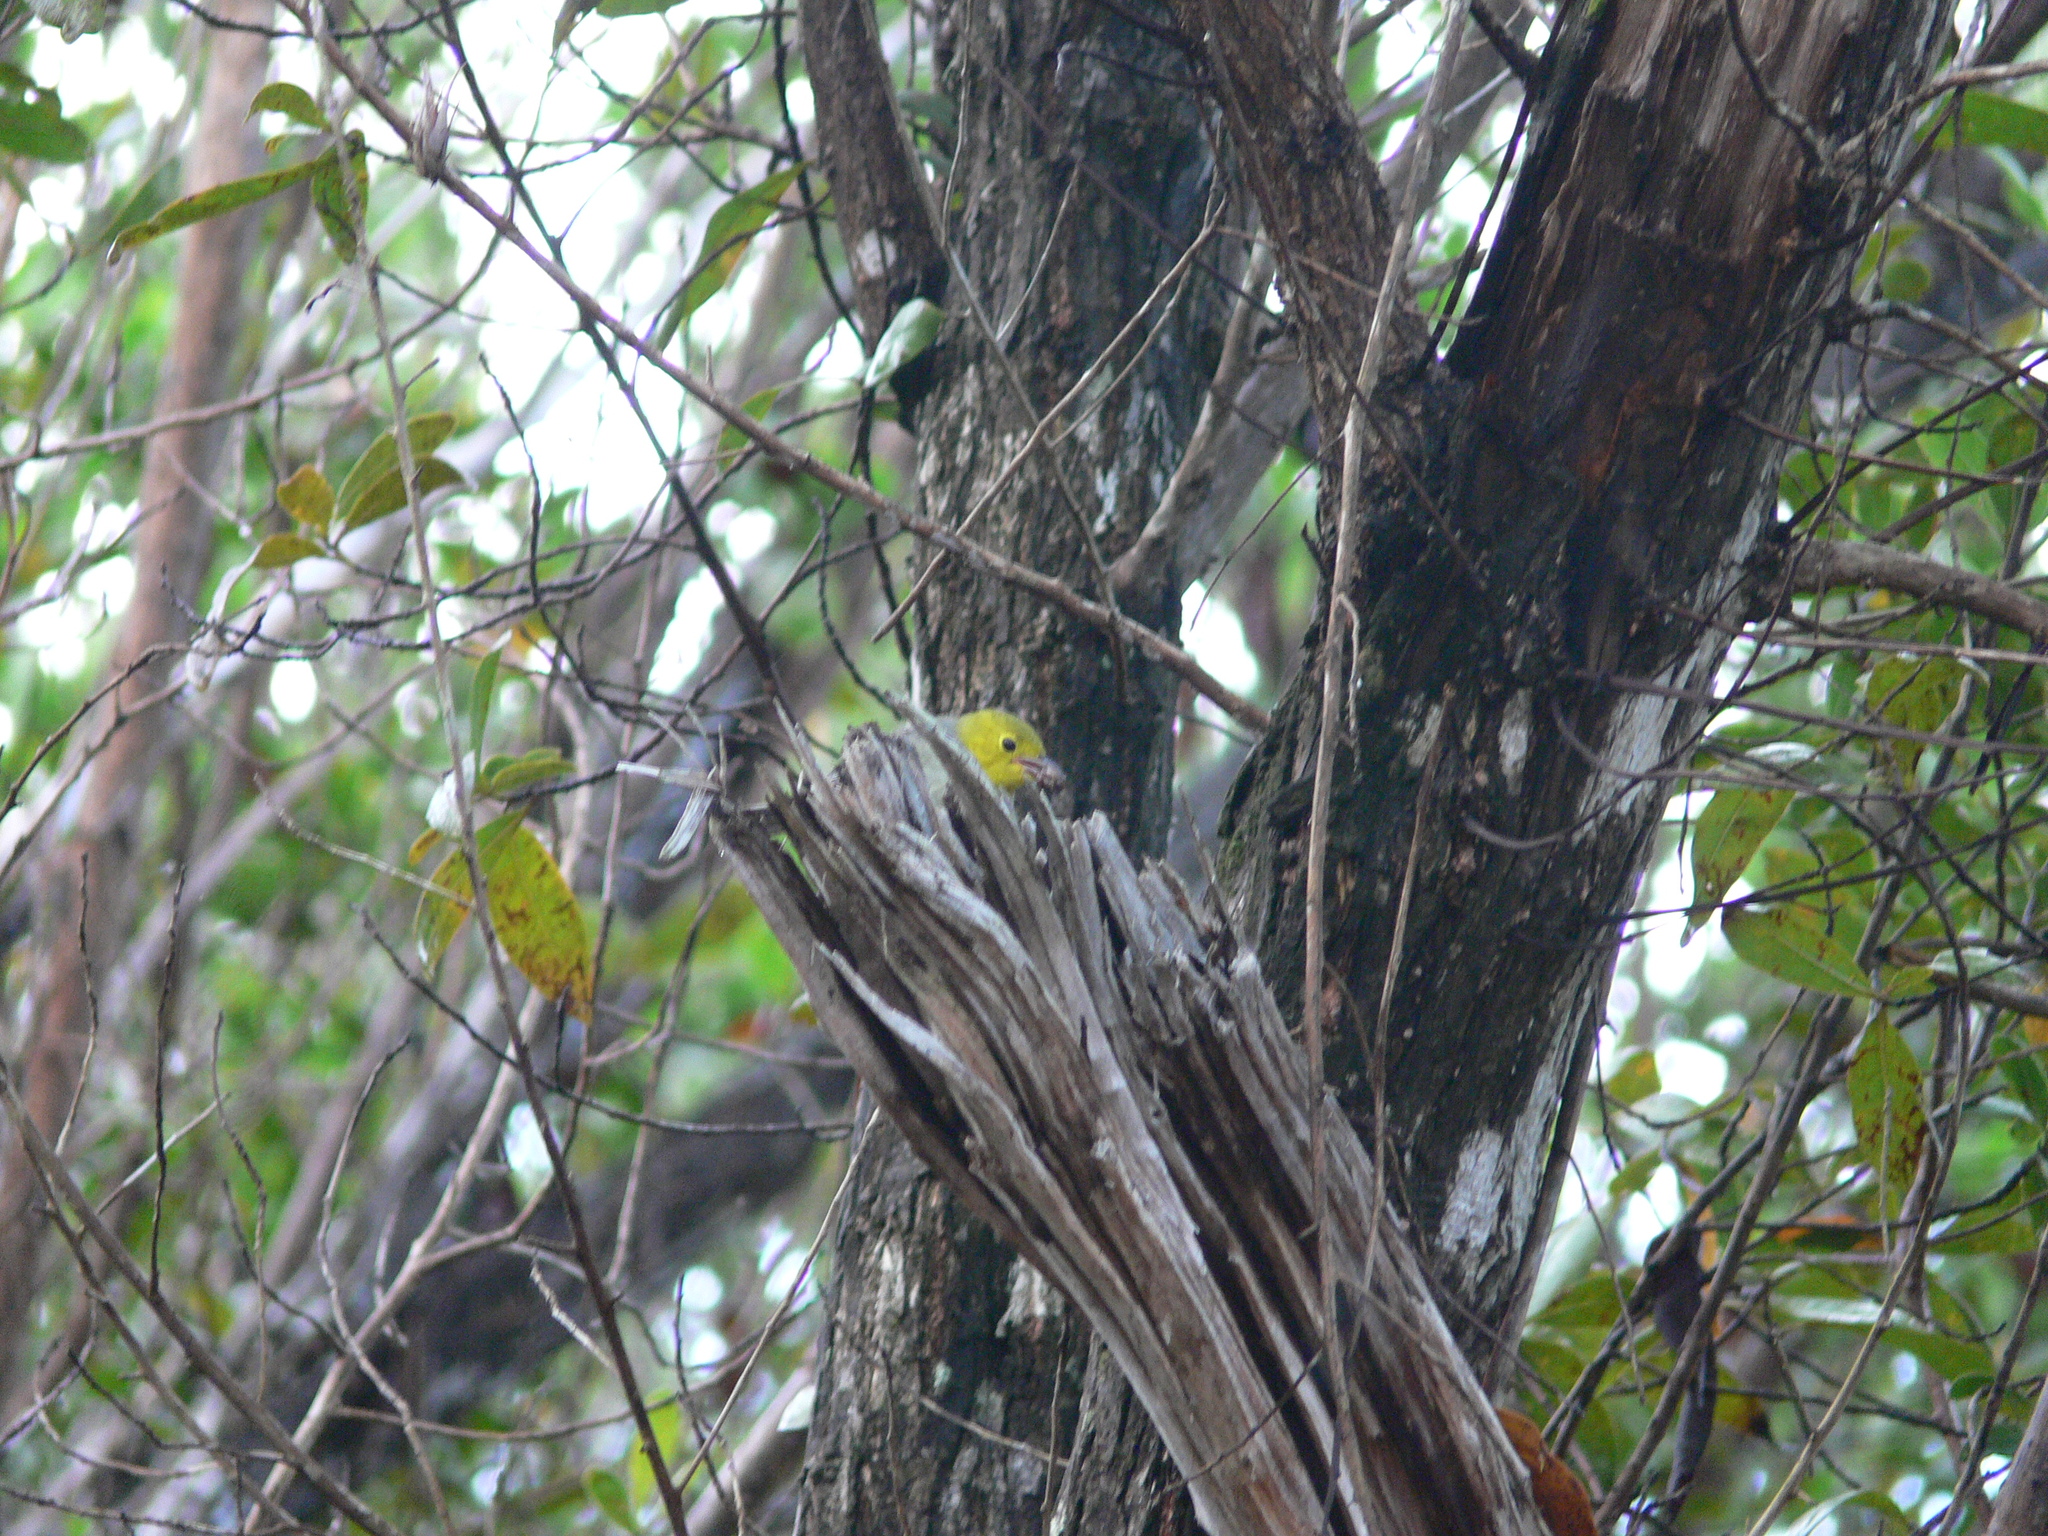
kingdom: Animalia
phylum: Chordata
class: Aves
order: Passeriformes
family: Parulidae
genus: Teretistris
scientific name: Teretistris fernandinae
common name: Yellow-headed warbler
